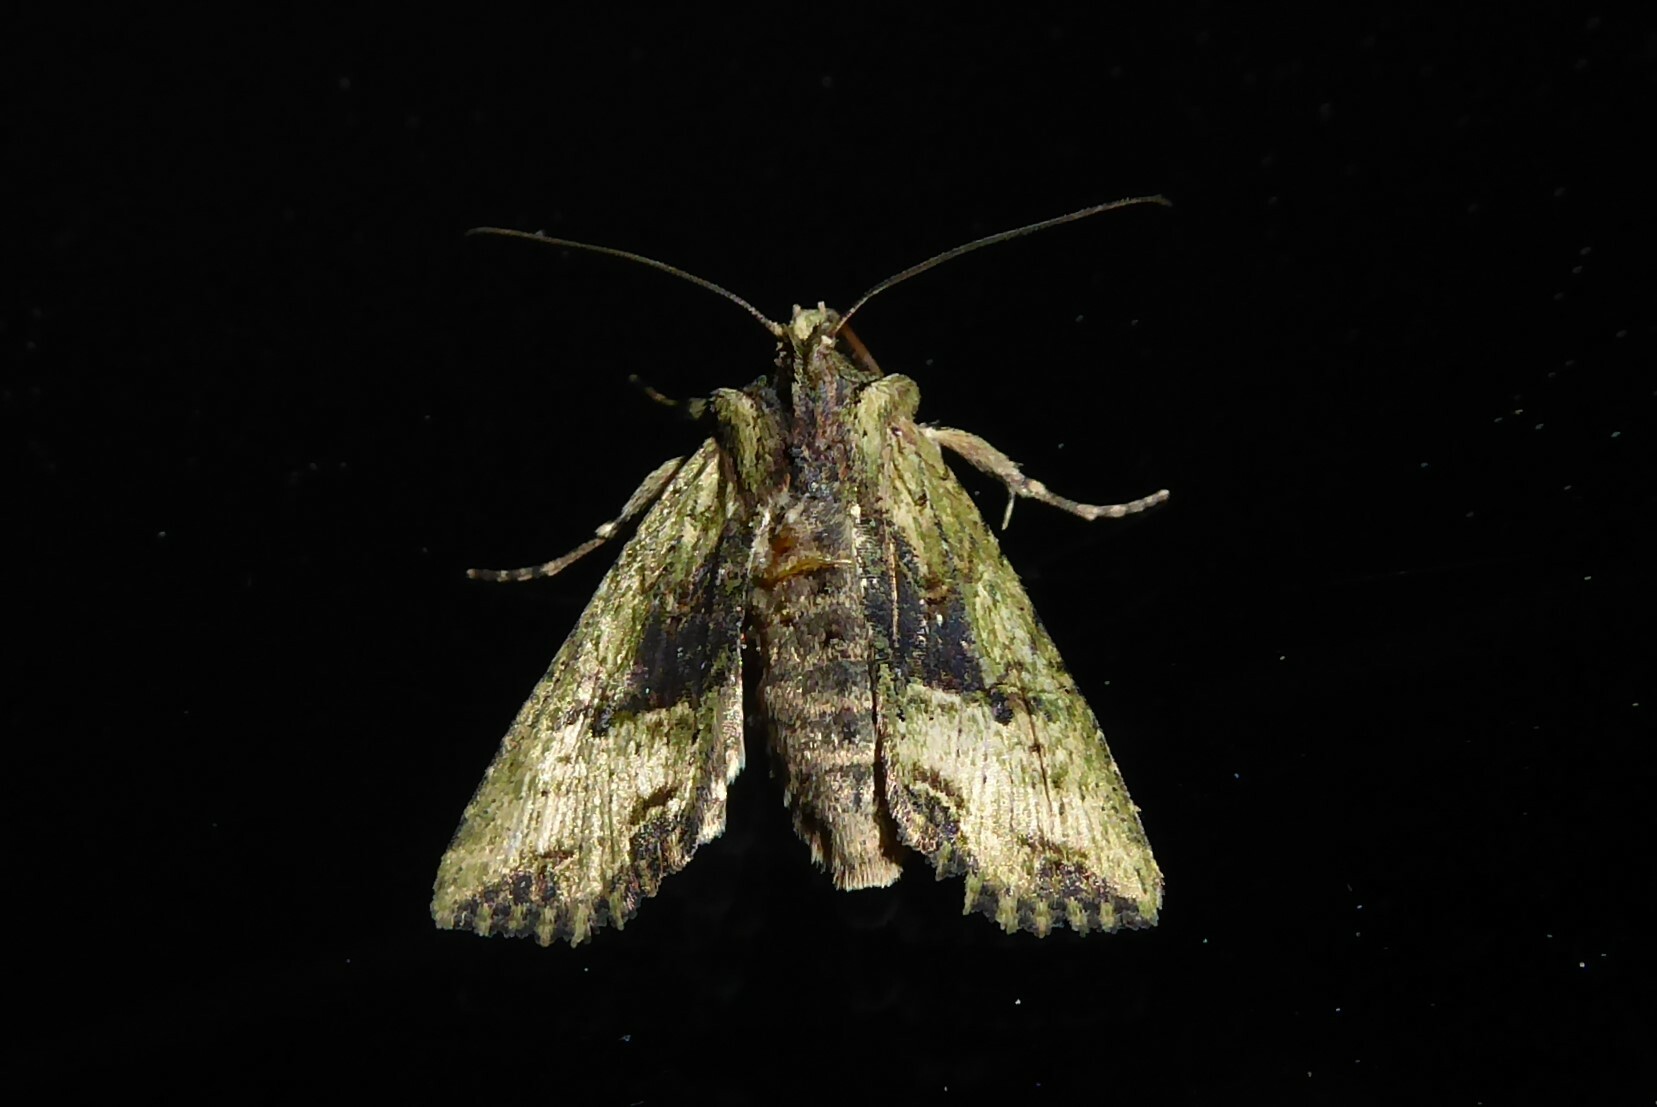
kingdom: Animalia
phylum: Arthropoda
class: Insecta
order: Lepidoptera
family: Noctuidae
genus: Meterana
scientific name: Meterana coeleno
